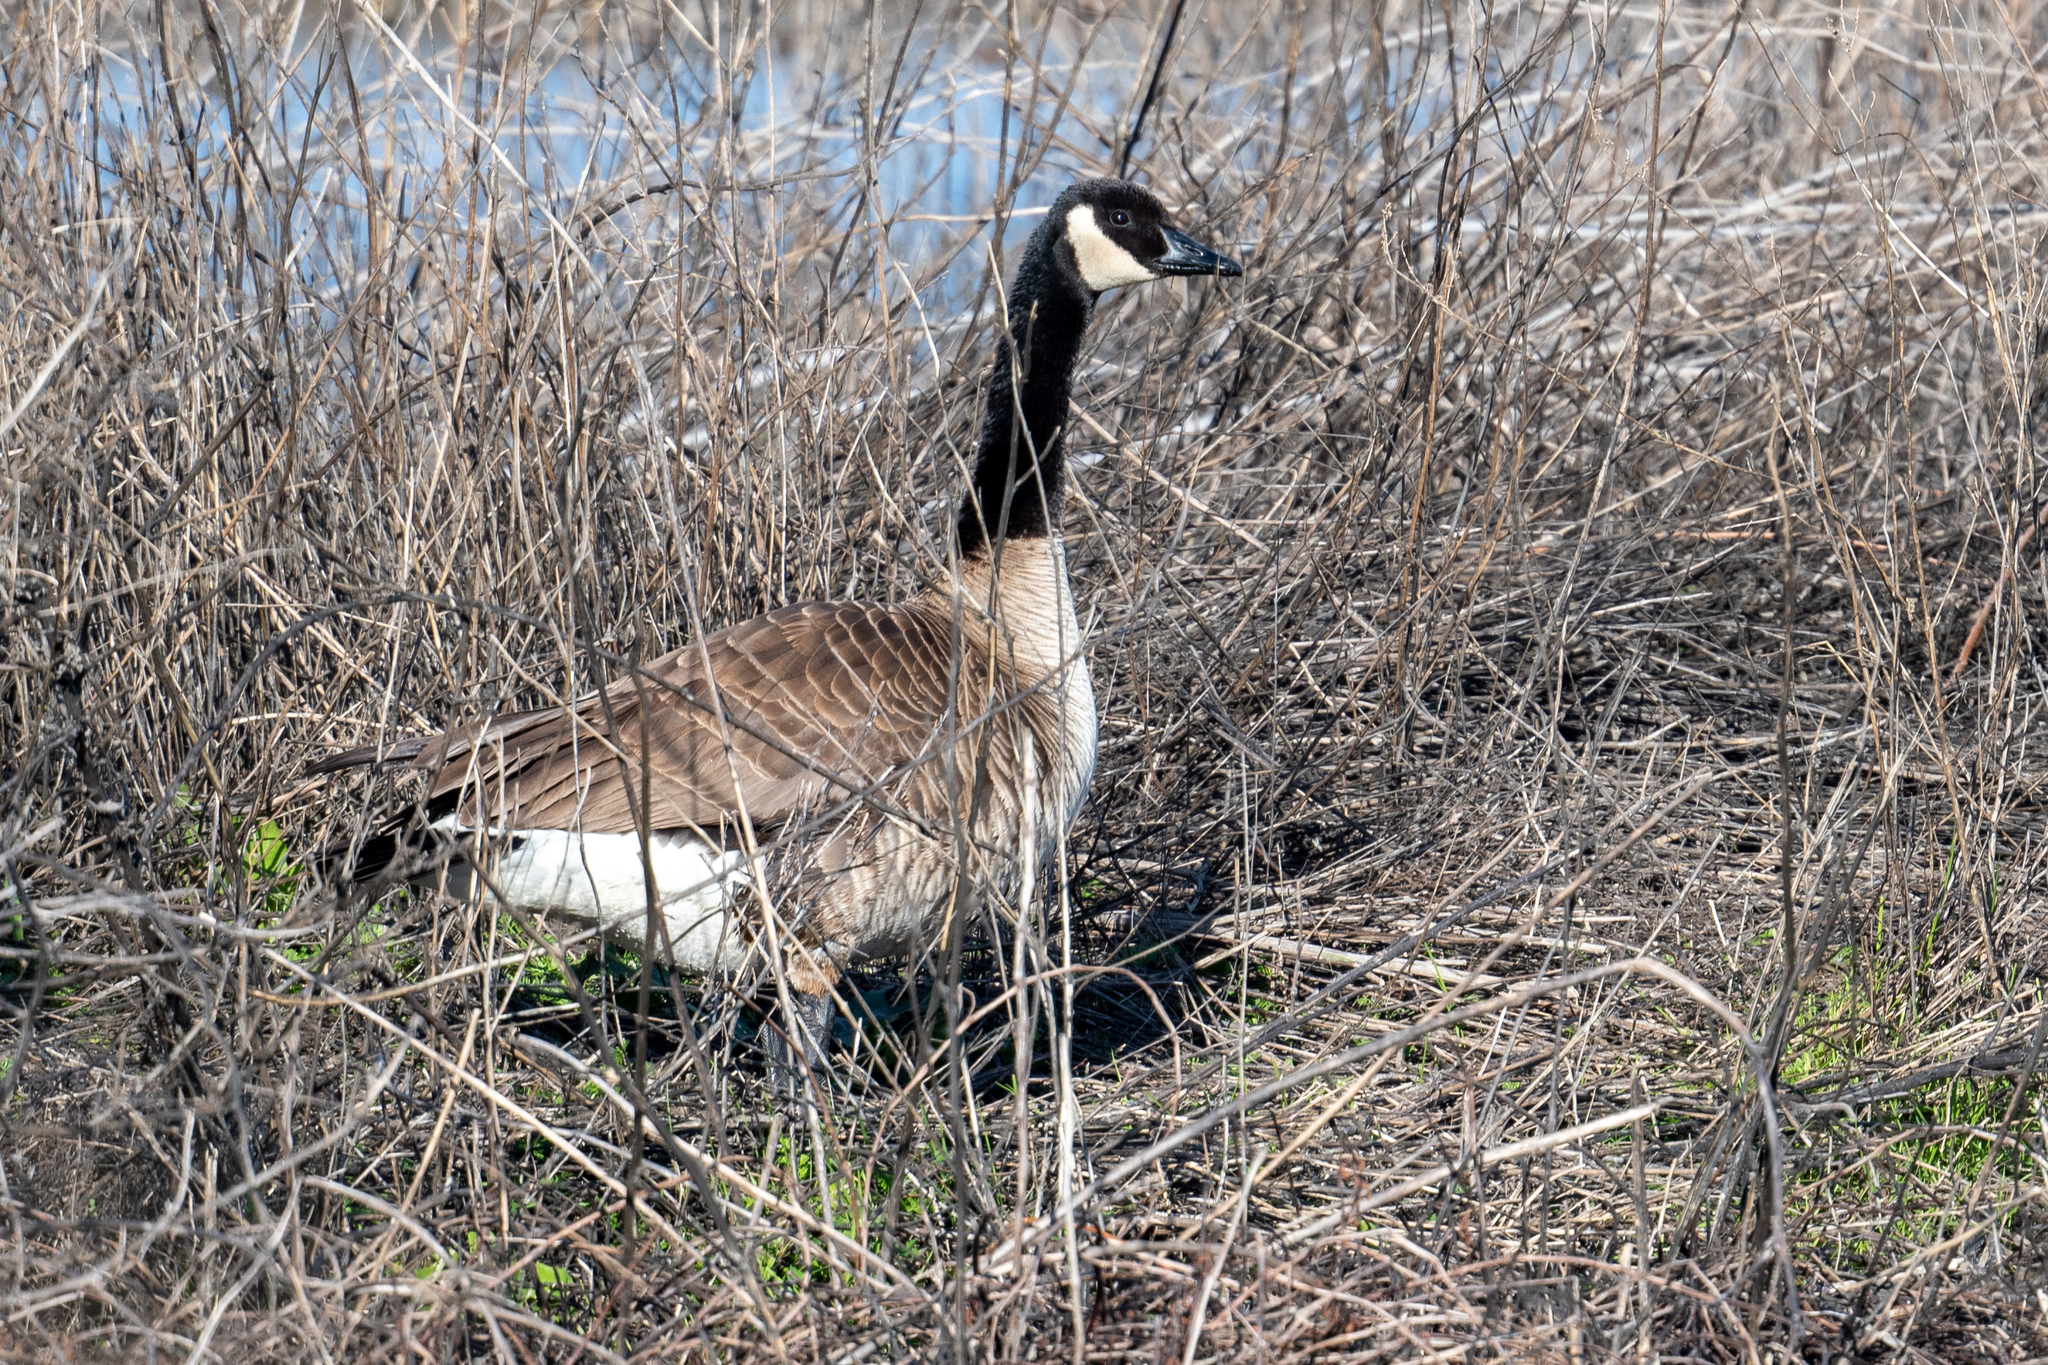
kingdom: Animalia
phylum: Chordata
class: Aves
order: Anseriformes
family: Anatidae
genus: Branta
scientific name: Branta canadensis
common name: Canada goose
